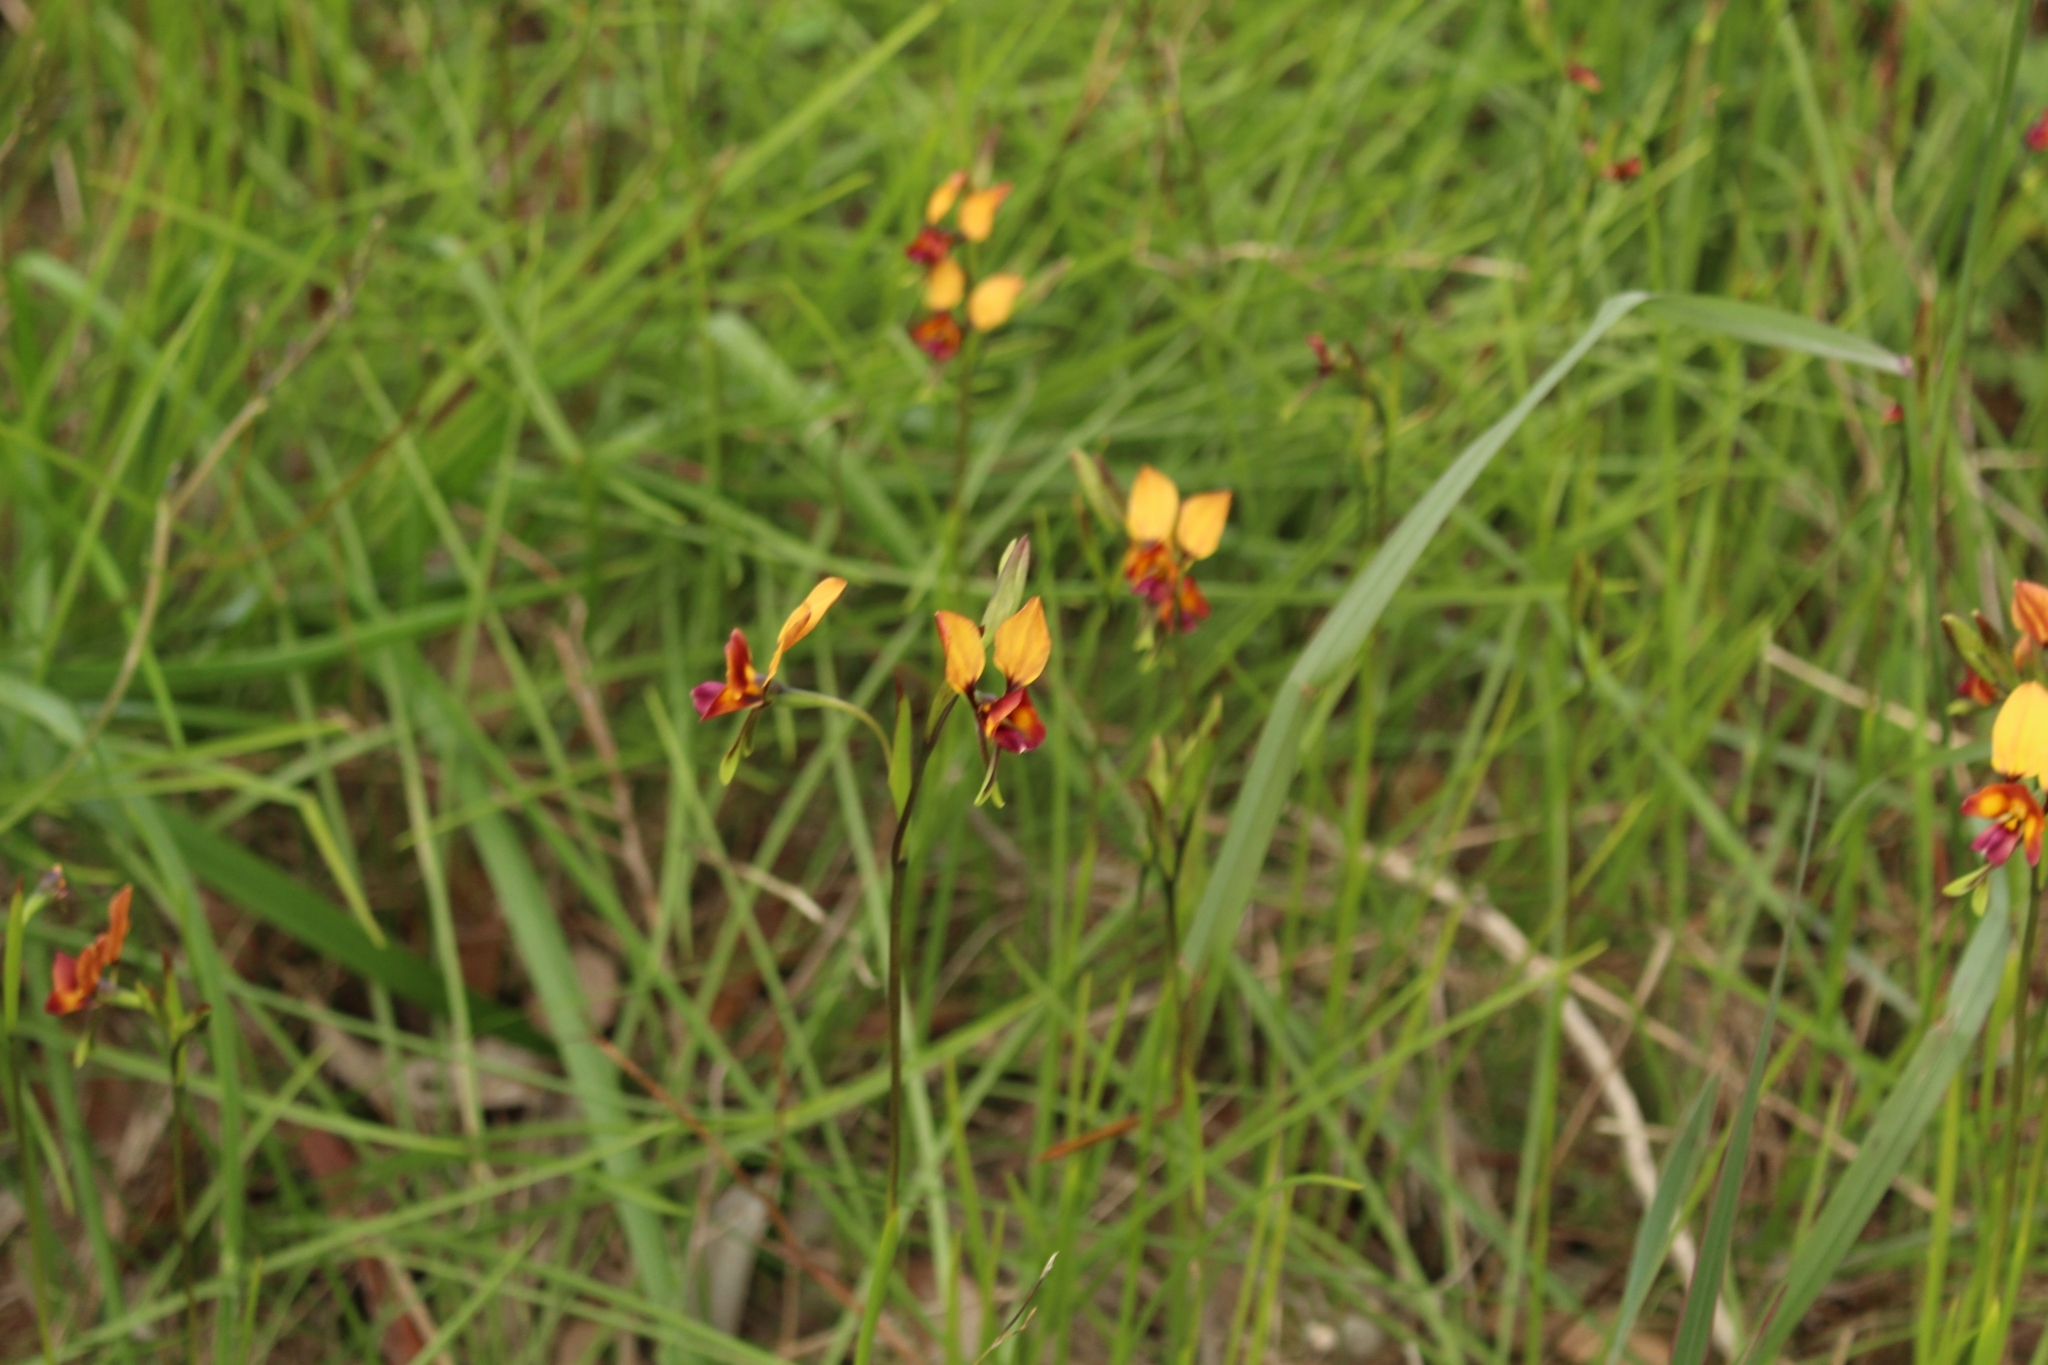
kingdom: Plantae
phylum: Tracheophyta
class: Liliopsida
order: Asparagales
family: Orchidaceae
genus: Diuris
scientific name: Diuris magnifica
